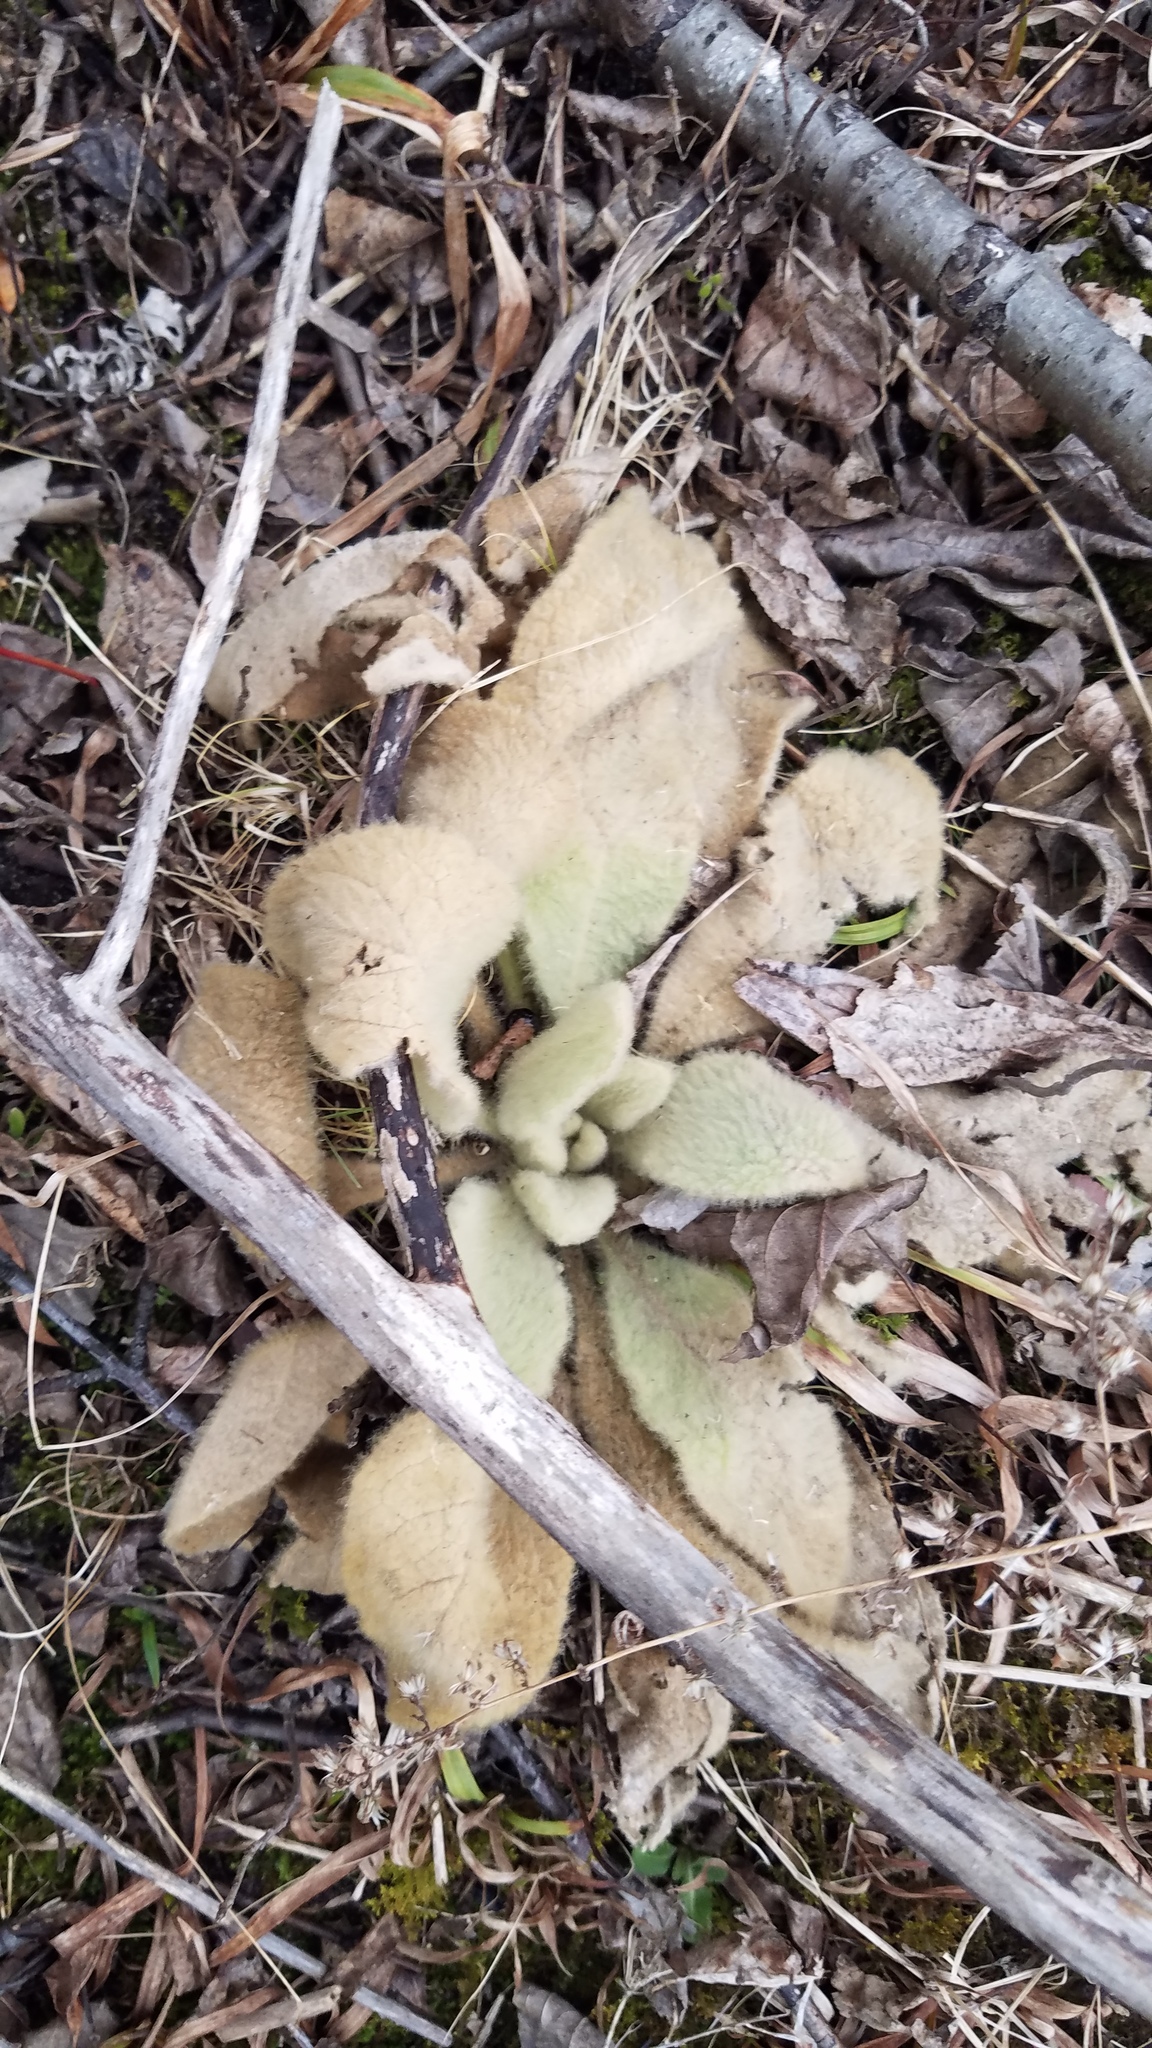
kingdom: Plantae
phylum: Tracheophyta
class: Magnoliopsida
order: Lamiales
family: Scrophulariaceae
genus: Verbascum
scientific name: Verbascum thapsus
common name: Common mullein
